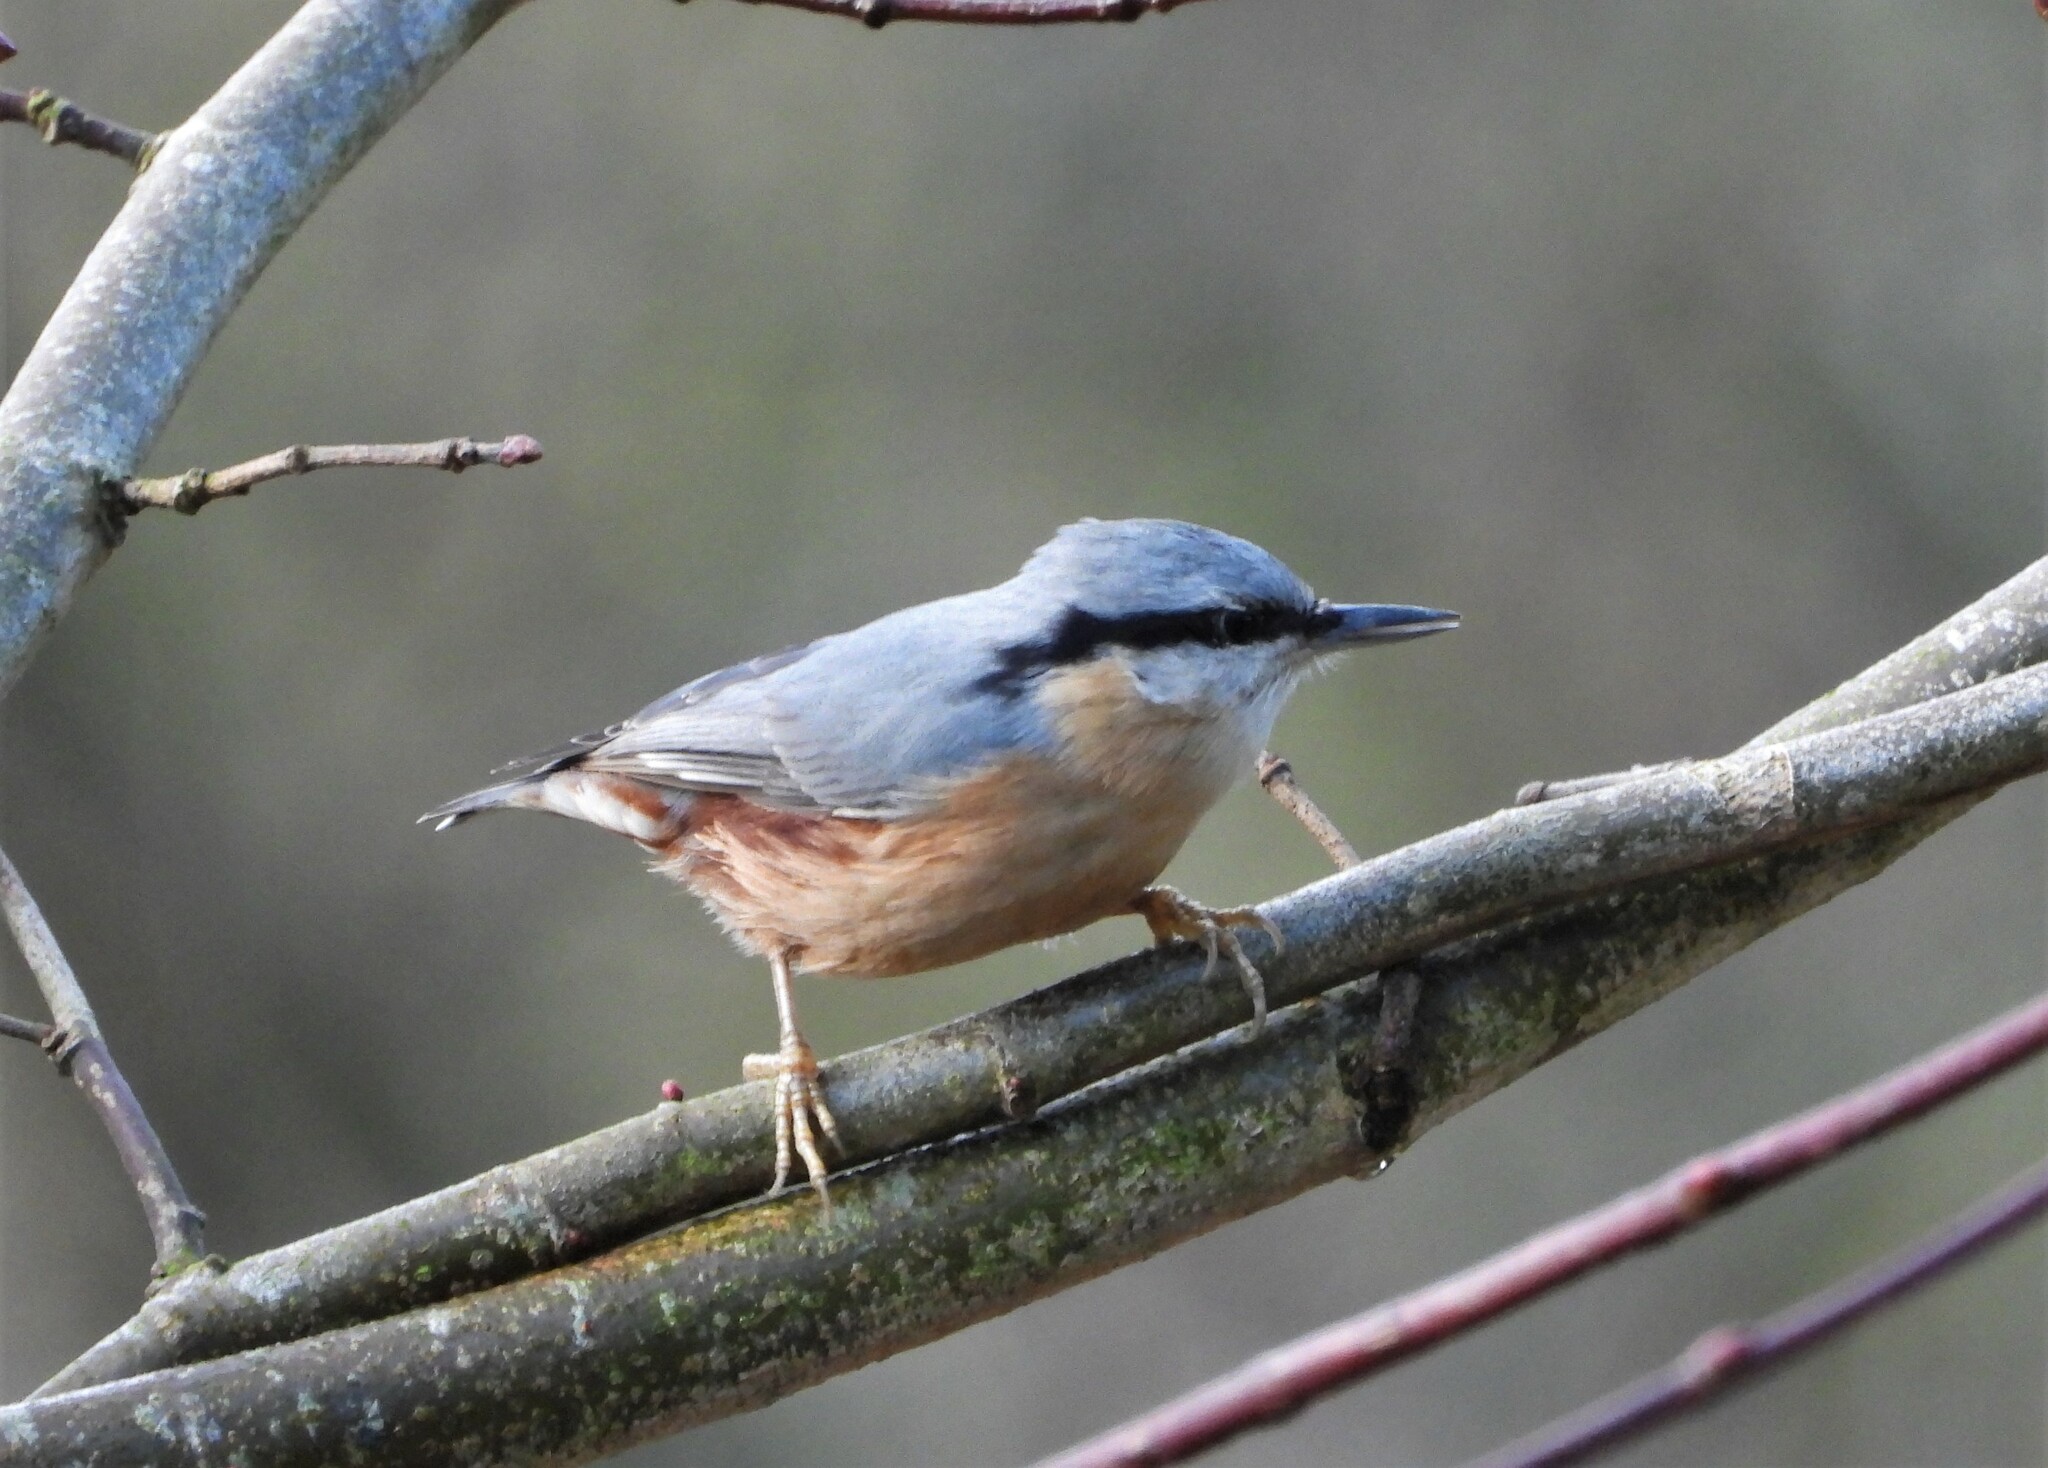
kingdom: Animalia
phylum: Chordata
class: Aves
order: Passeriformes
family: Sittidae
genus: Sitta
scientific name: Sitta europaea
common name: Eurasian nuthatch
